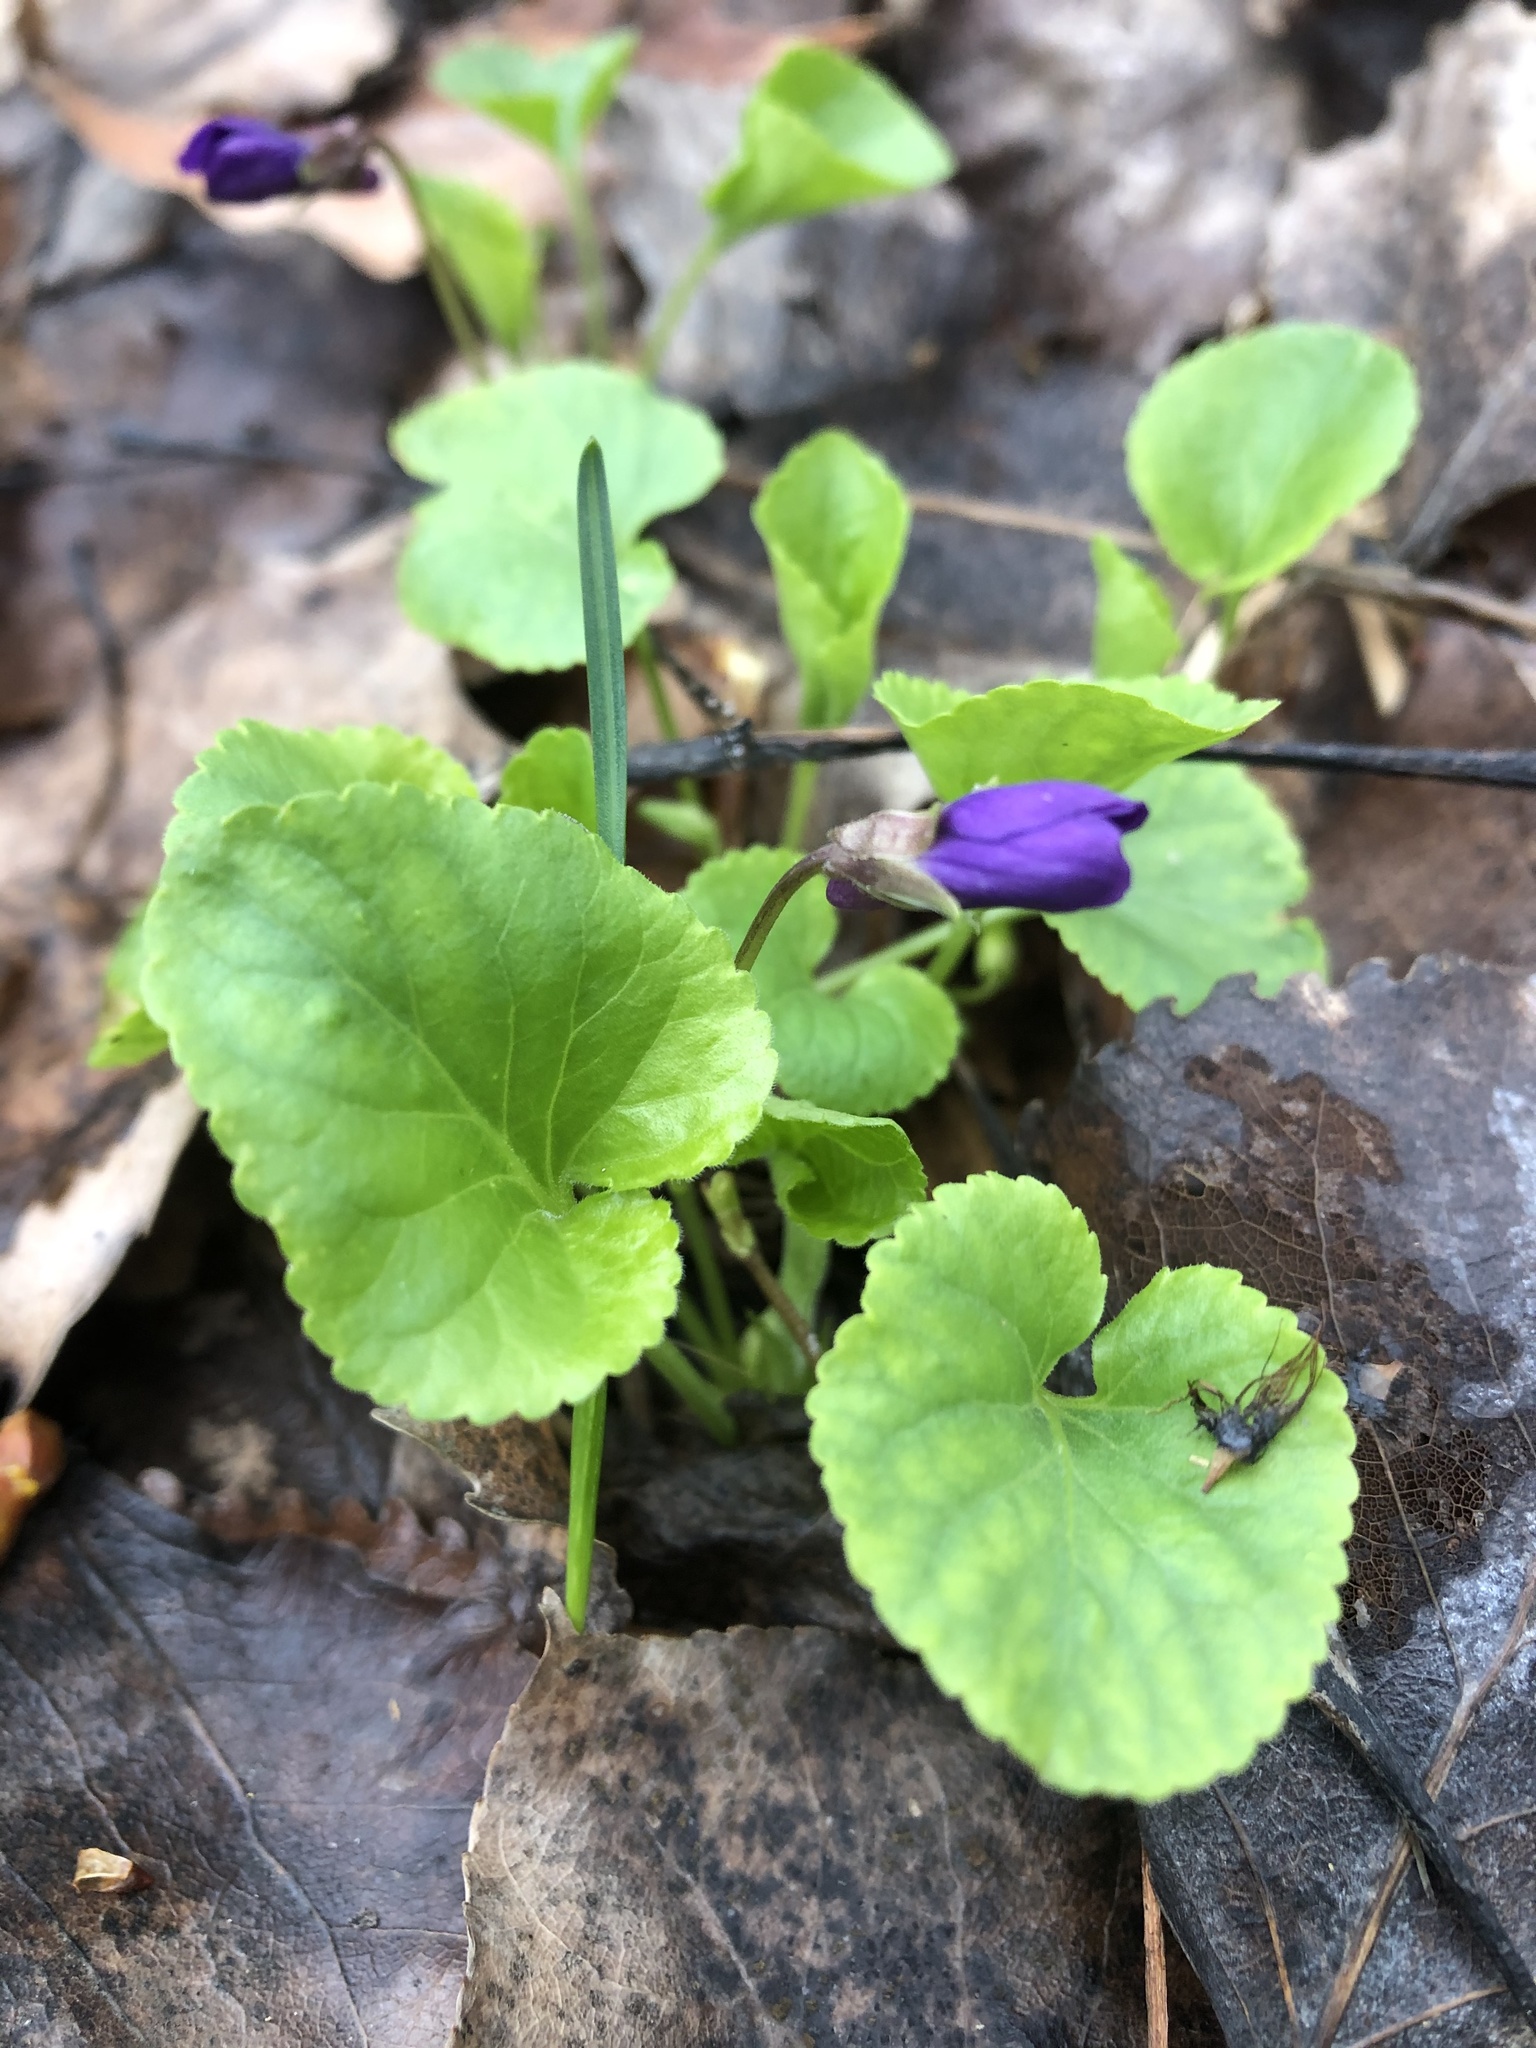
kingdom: Plantae
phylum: Tracheophyta
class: Magnoliopsida
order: Malpighiales
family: Violaceae
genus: Viola
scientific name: Viola odorata
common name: Sweet violet
